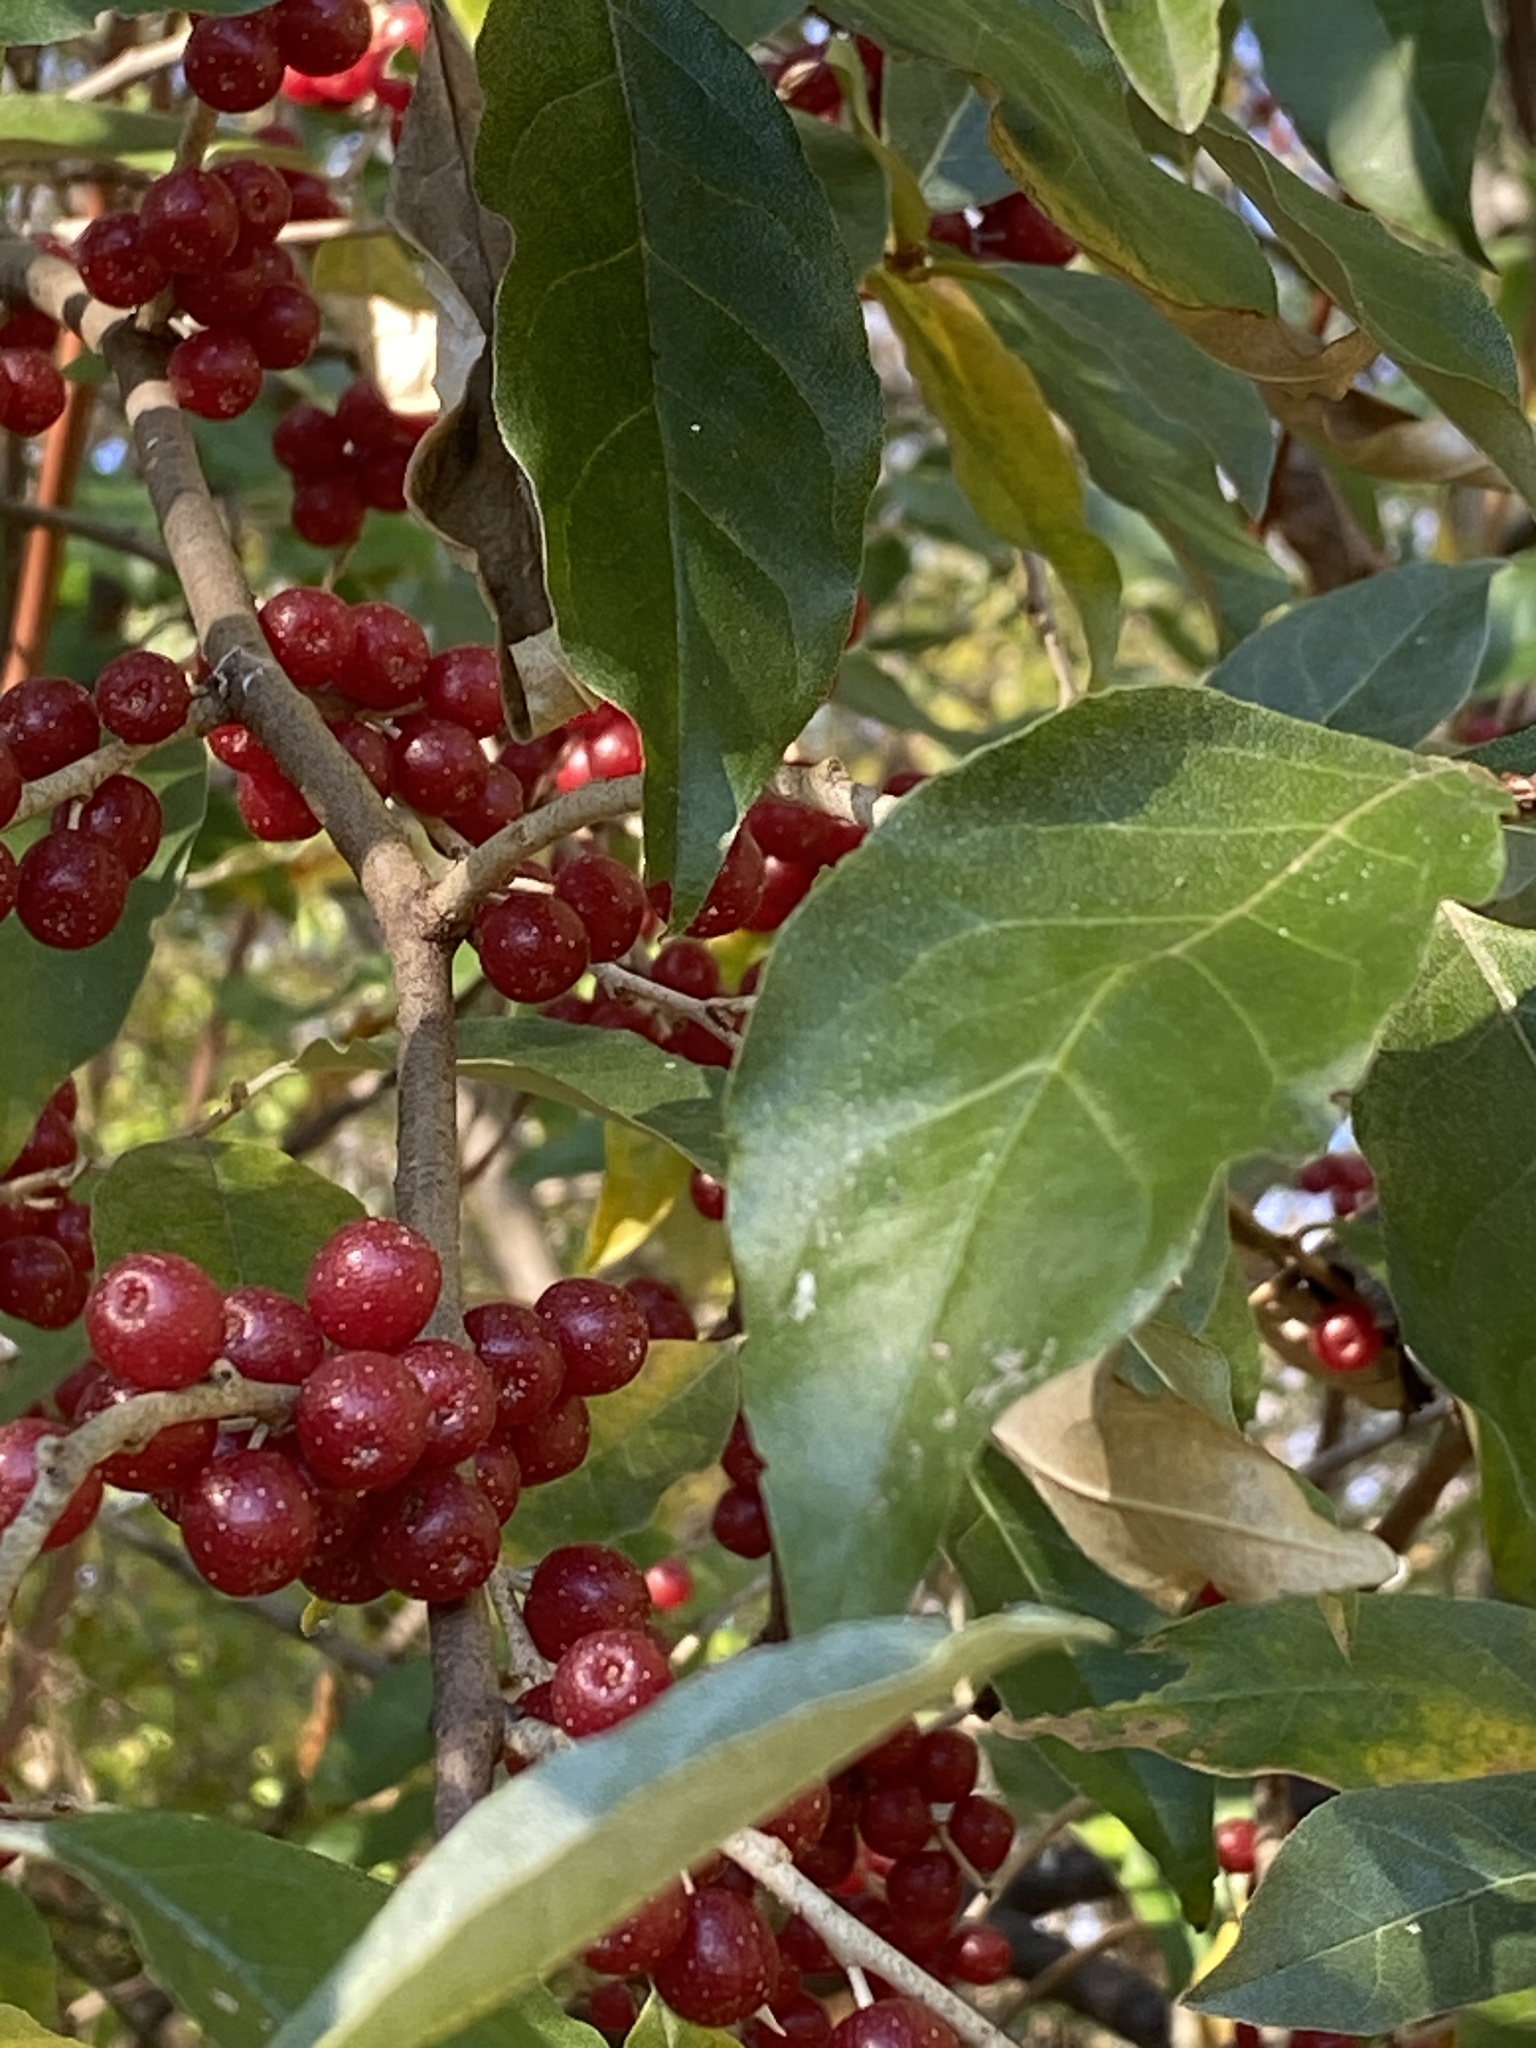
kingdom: Plantae
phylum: Tracheophyta
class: Magnoliopsida
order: Rosales
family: Elaeagnaceae
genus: Elaeagnus
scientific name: Elaeagnus umbellata
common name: Autumn olive
